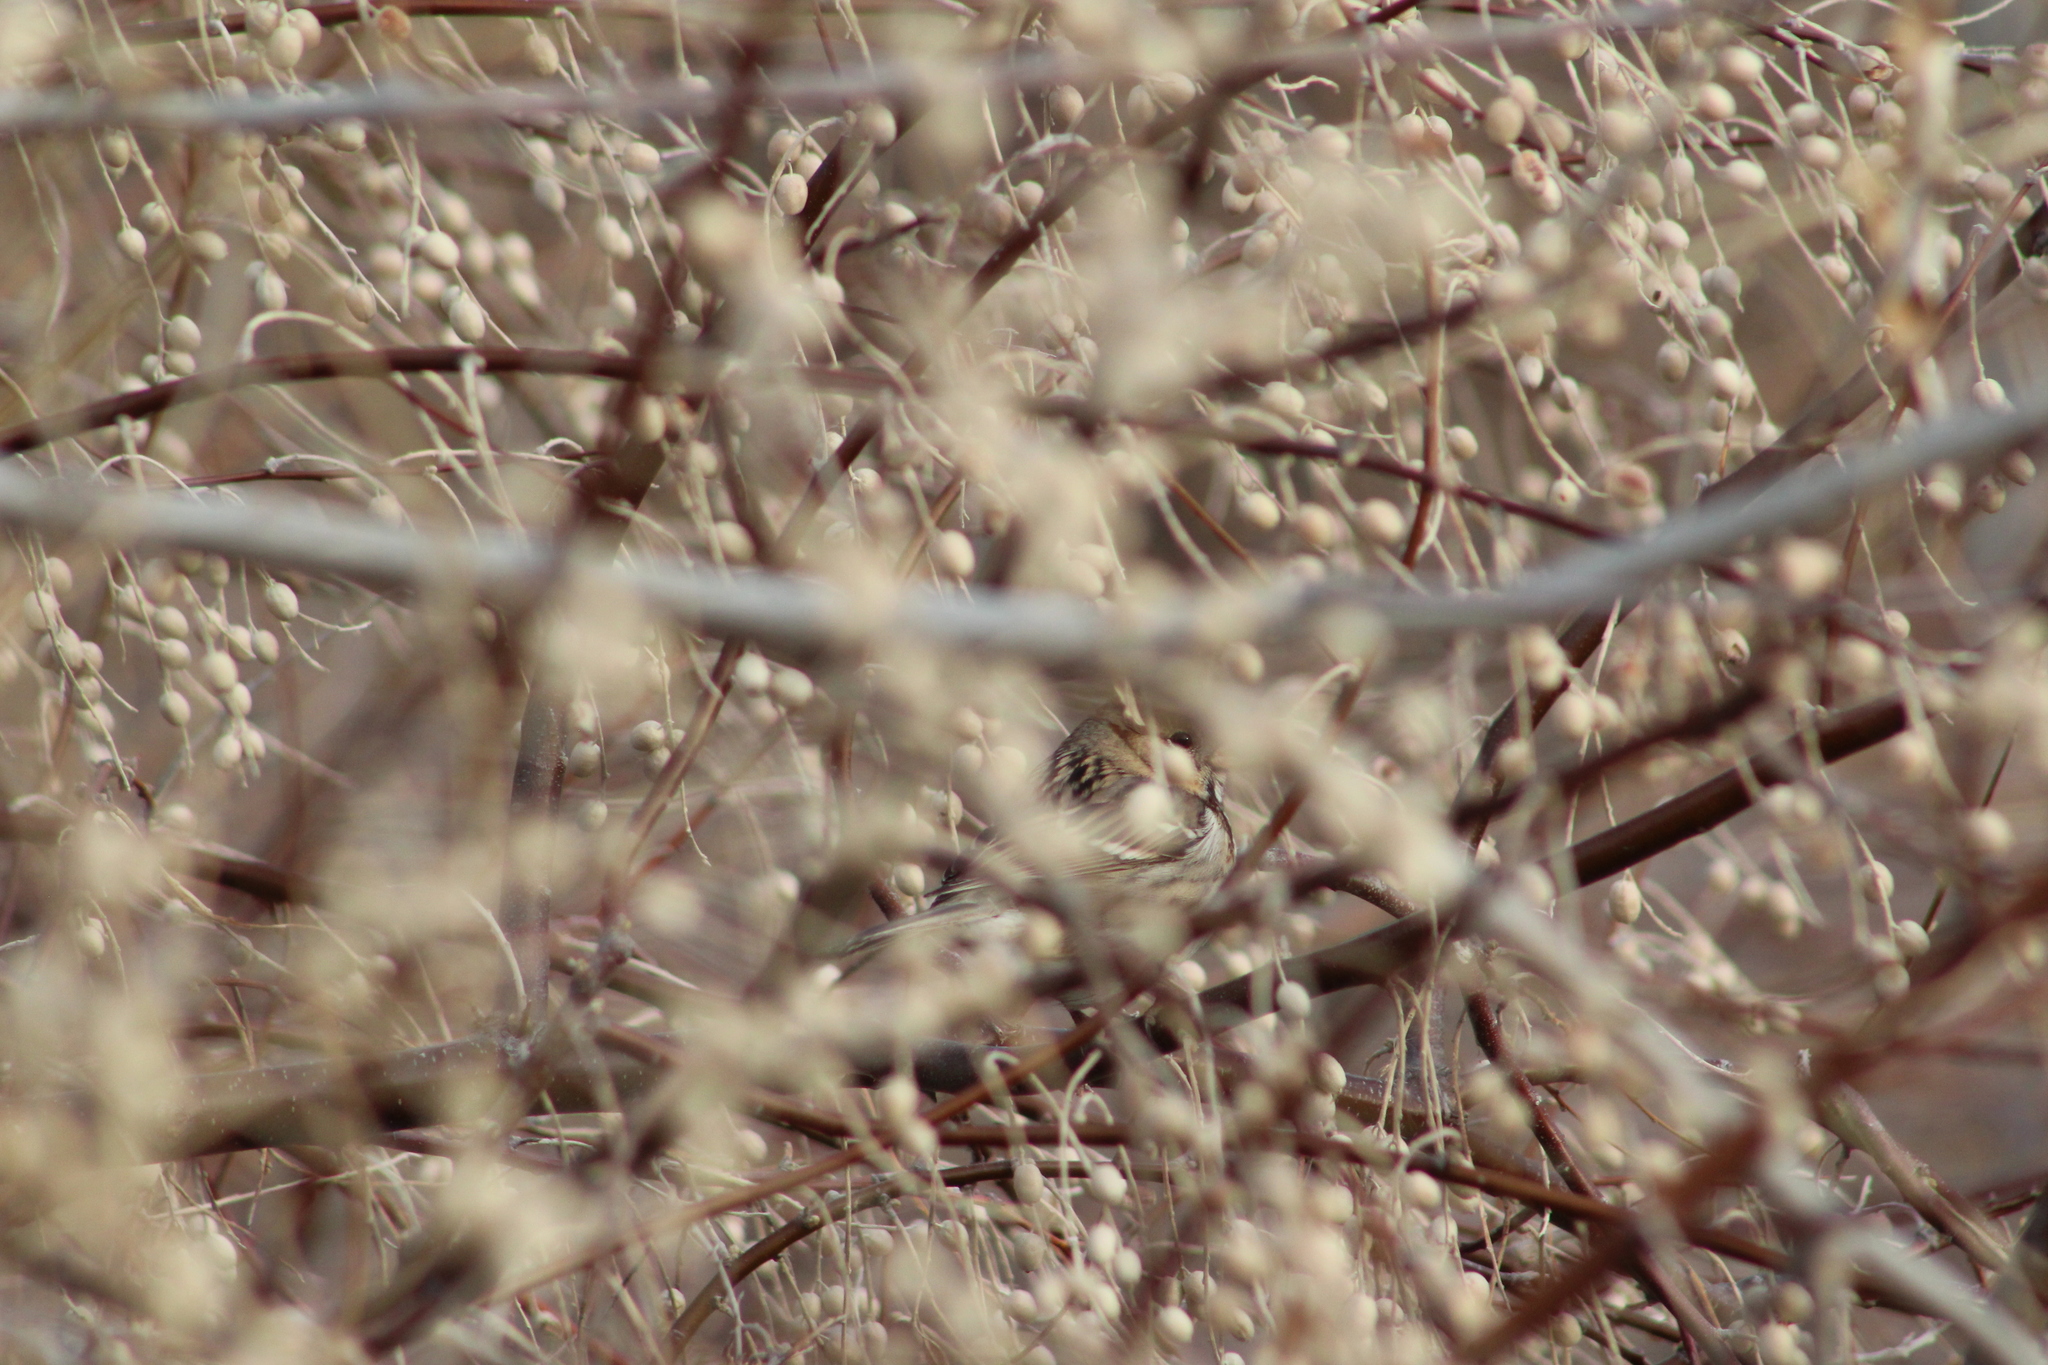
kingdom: Animalia
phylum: Chordata
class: Aves
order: Passeriformes
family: Passerellidae
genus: Zonotrichia
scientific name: Zonotrichia querula
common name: Harris's sparrow
